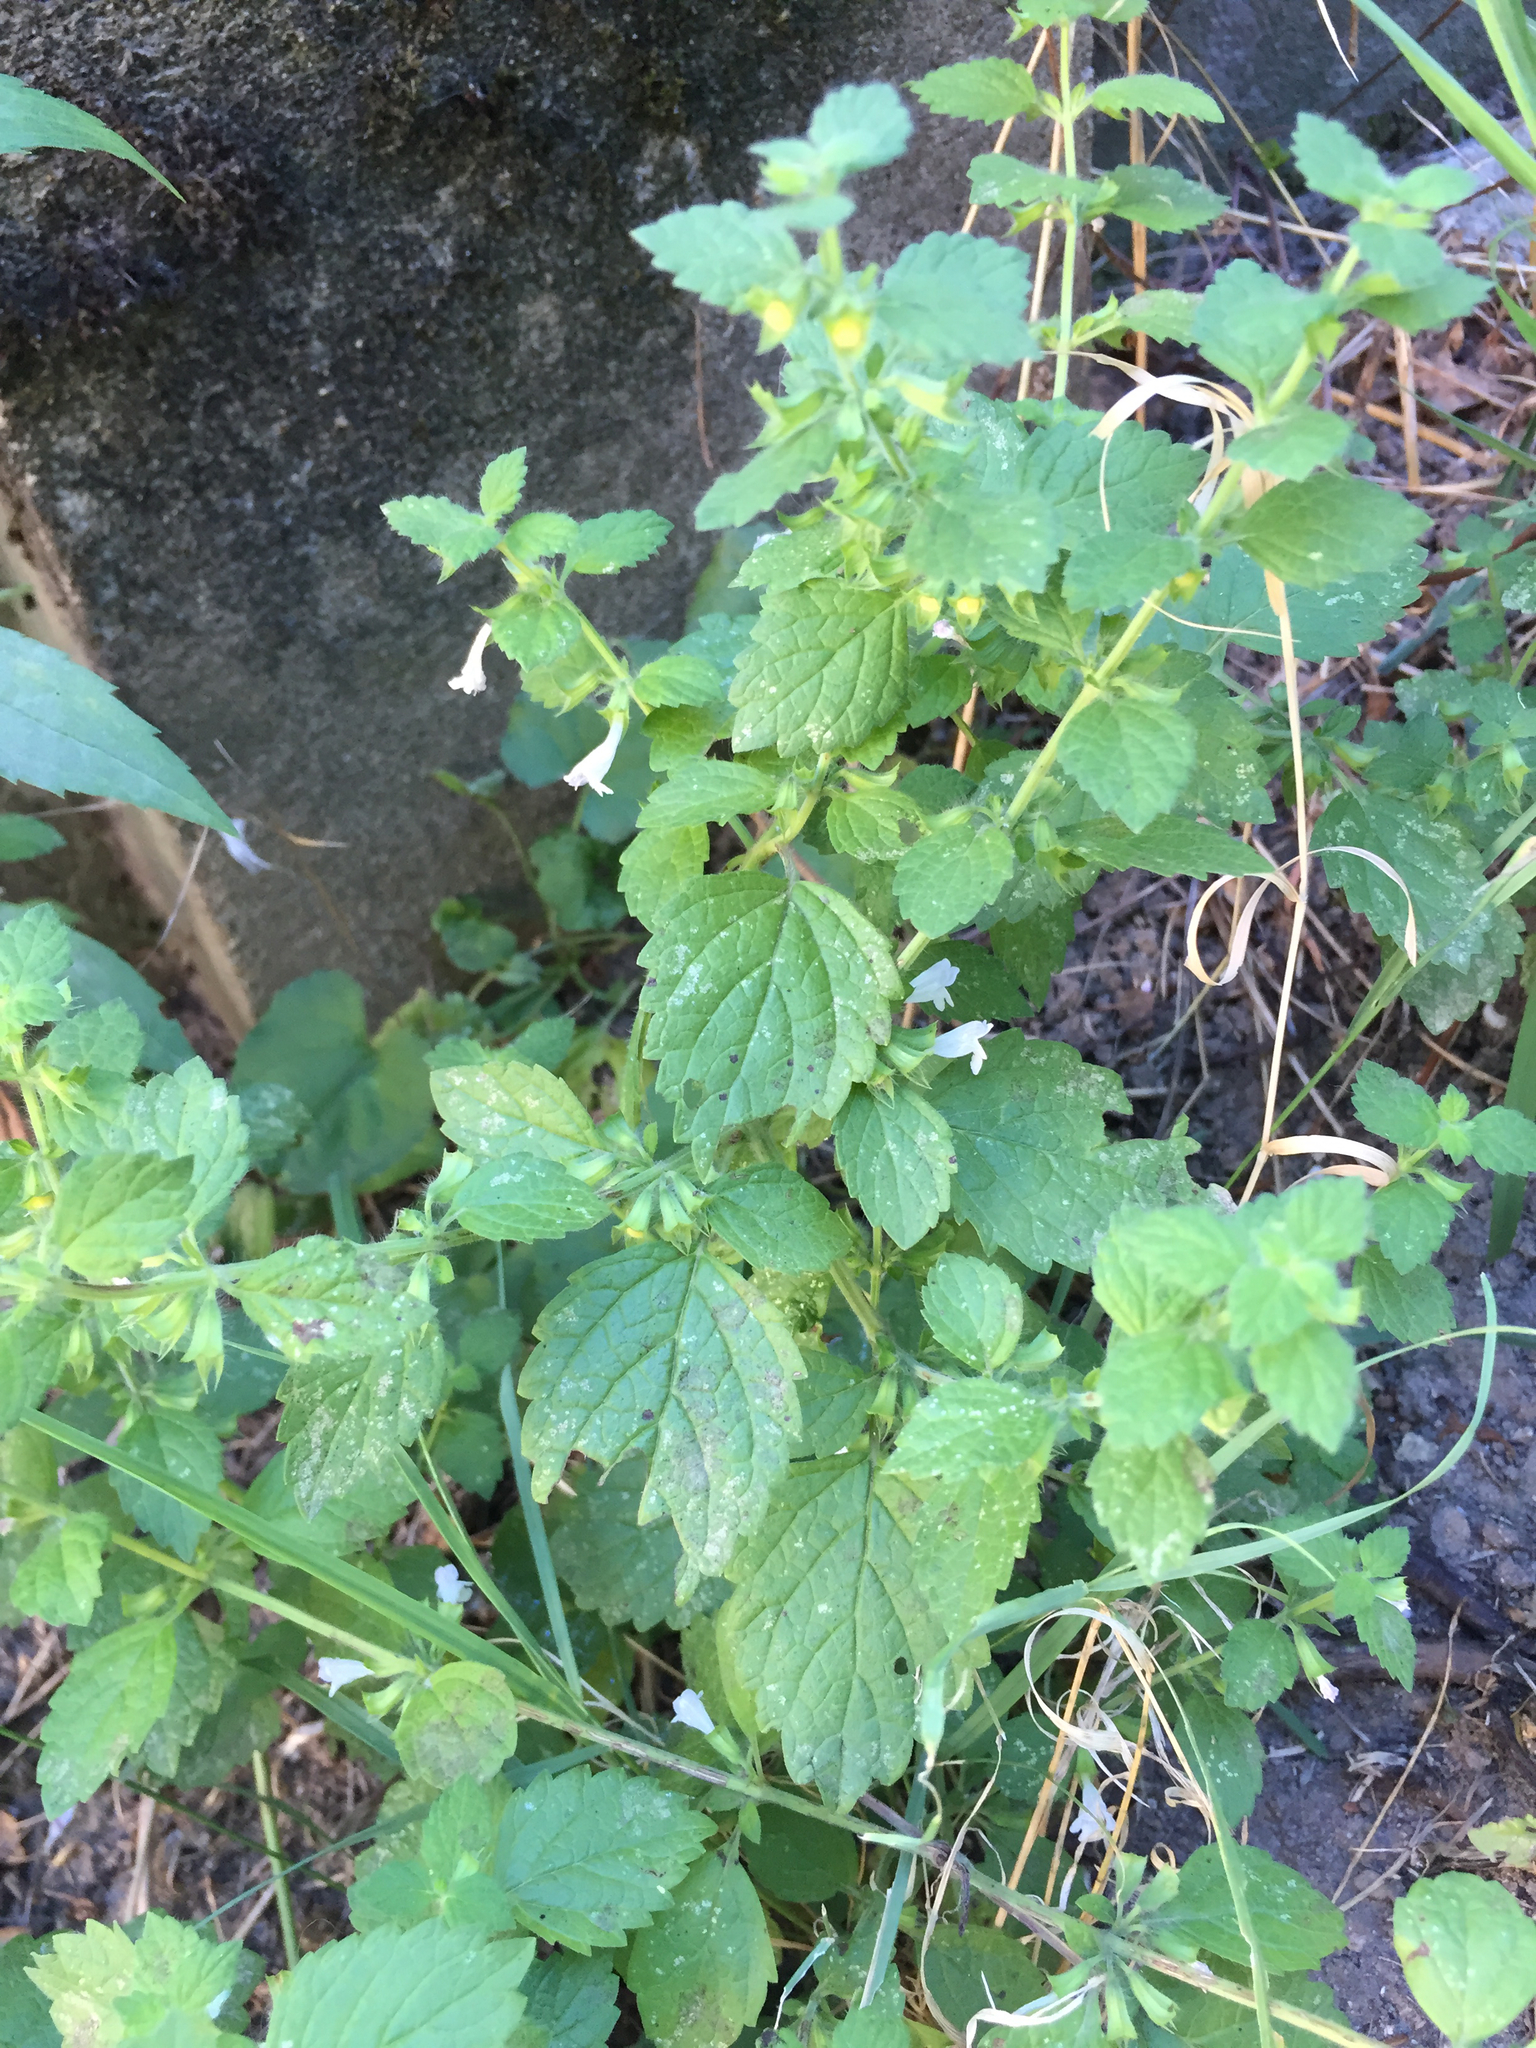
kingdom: Plantae
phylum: Tracheophyta
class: Magnoliopsida
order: Lamiales
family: Lamiaceae
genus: Melissa
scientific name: Melissa officinalis
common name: Balm
